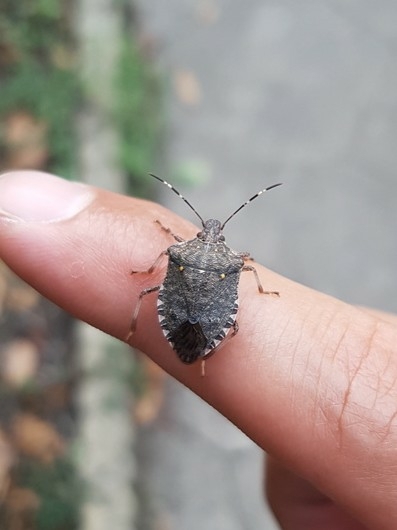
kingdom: Animalia
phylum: Arthropoda
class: Insecta
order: Hemiptera
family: Pentatomidae
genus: Halyomorpha
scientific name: Halyomorpha halys
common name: Brown marmorated stink bug
